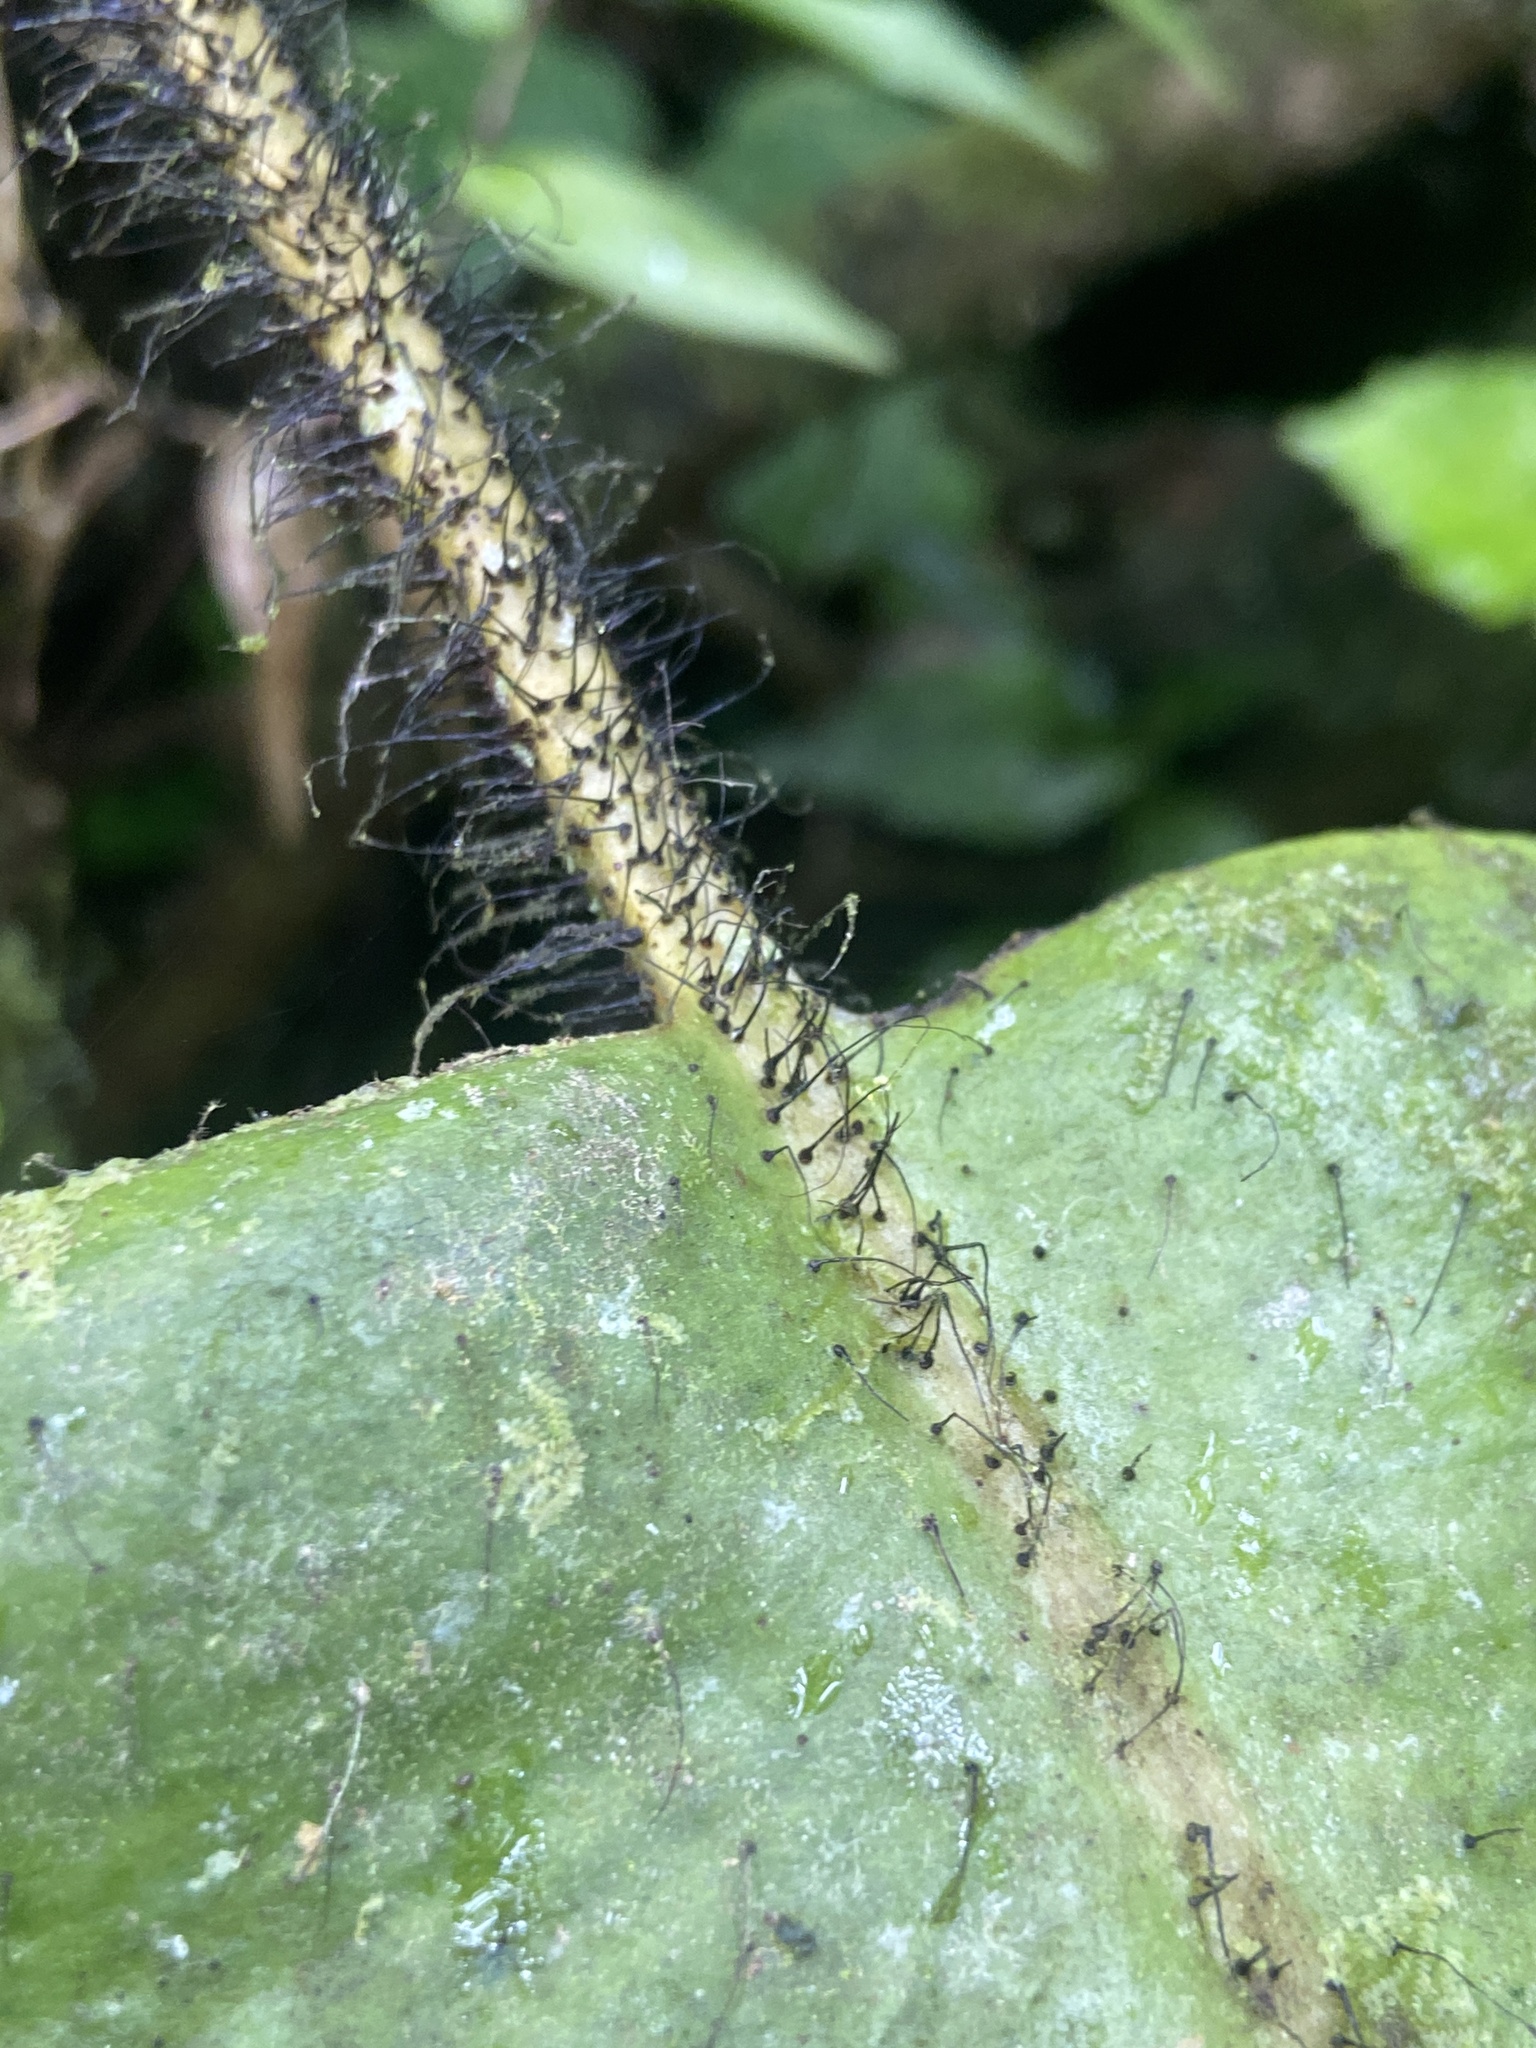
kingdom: Plantae
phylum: Tracheophyta
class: Polypodiopsida
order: Polypodiales
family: Dryopteridaceae
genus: Elaphoglossum
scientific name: Elaphoglossum crinitum
